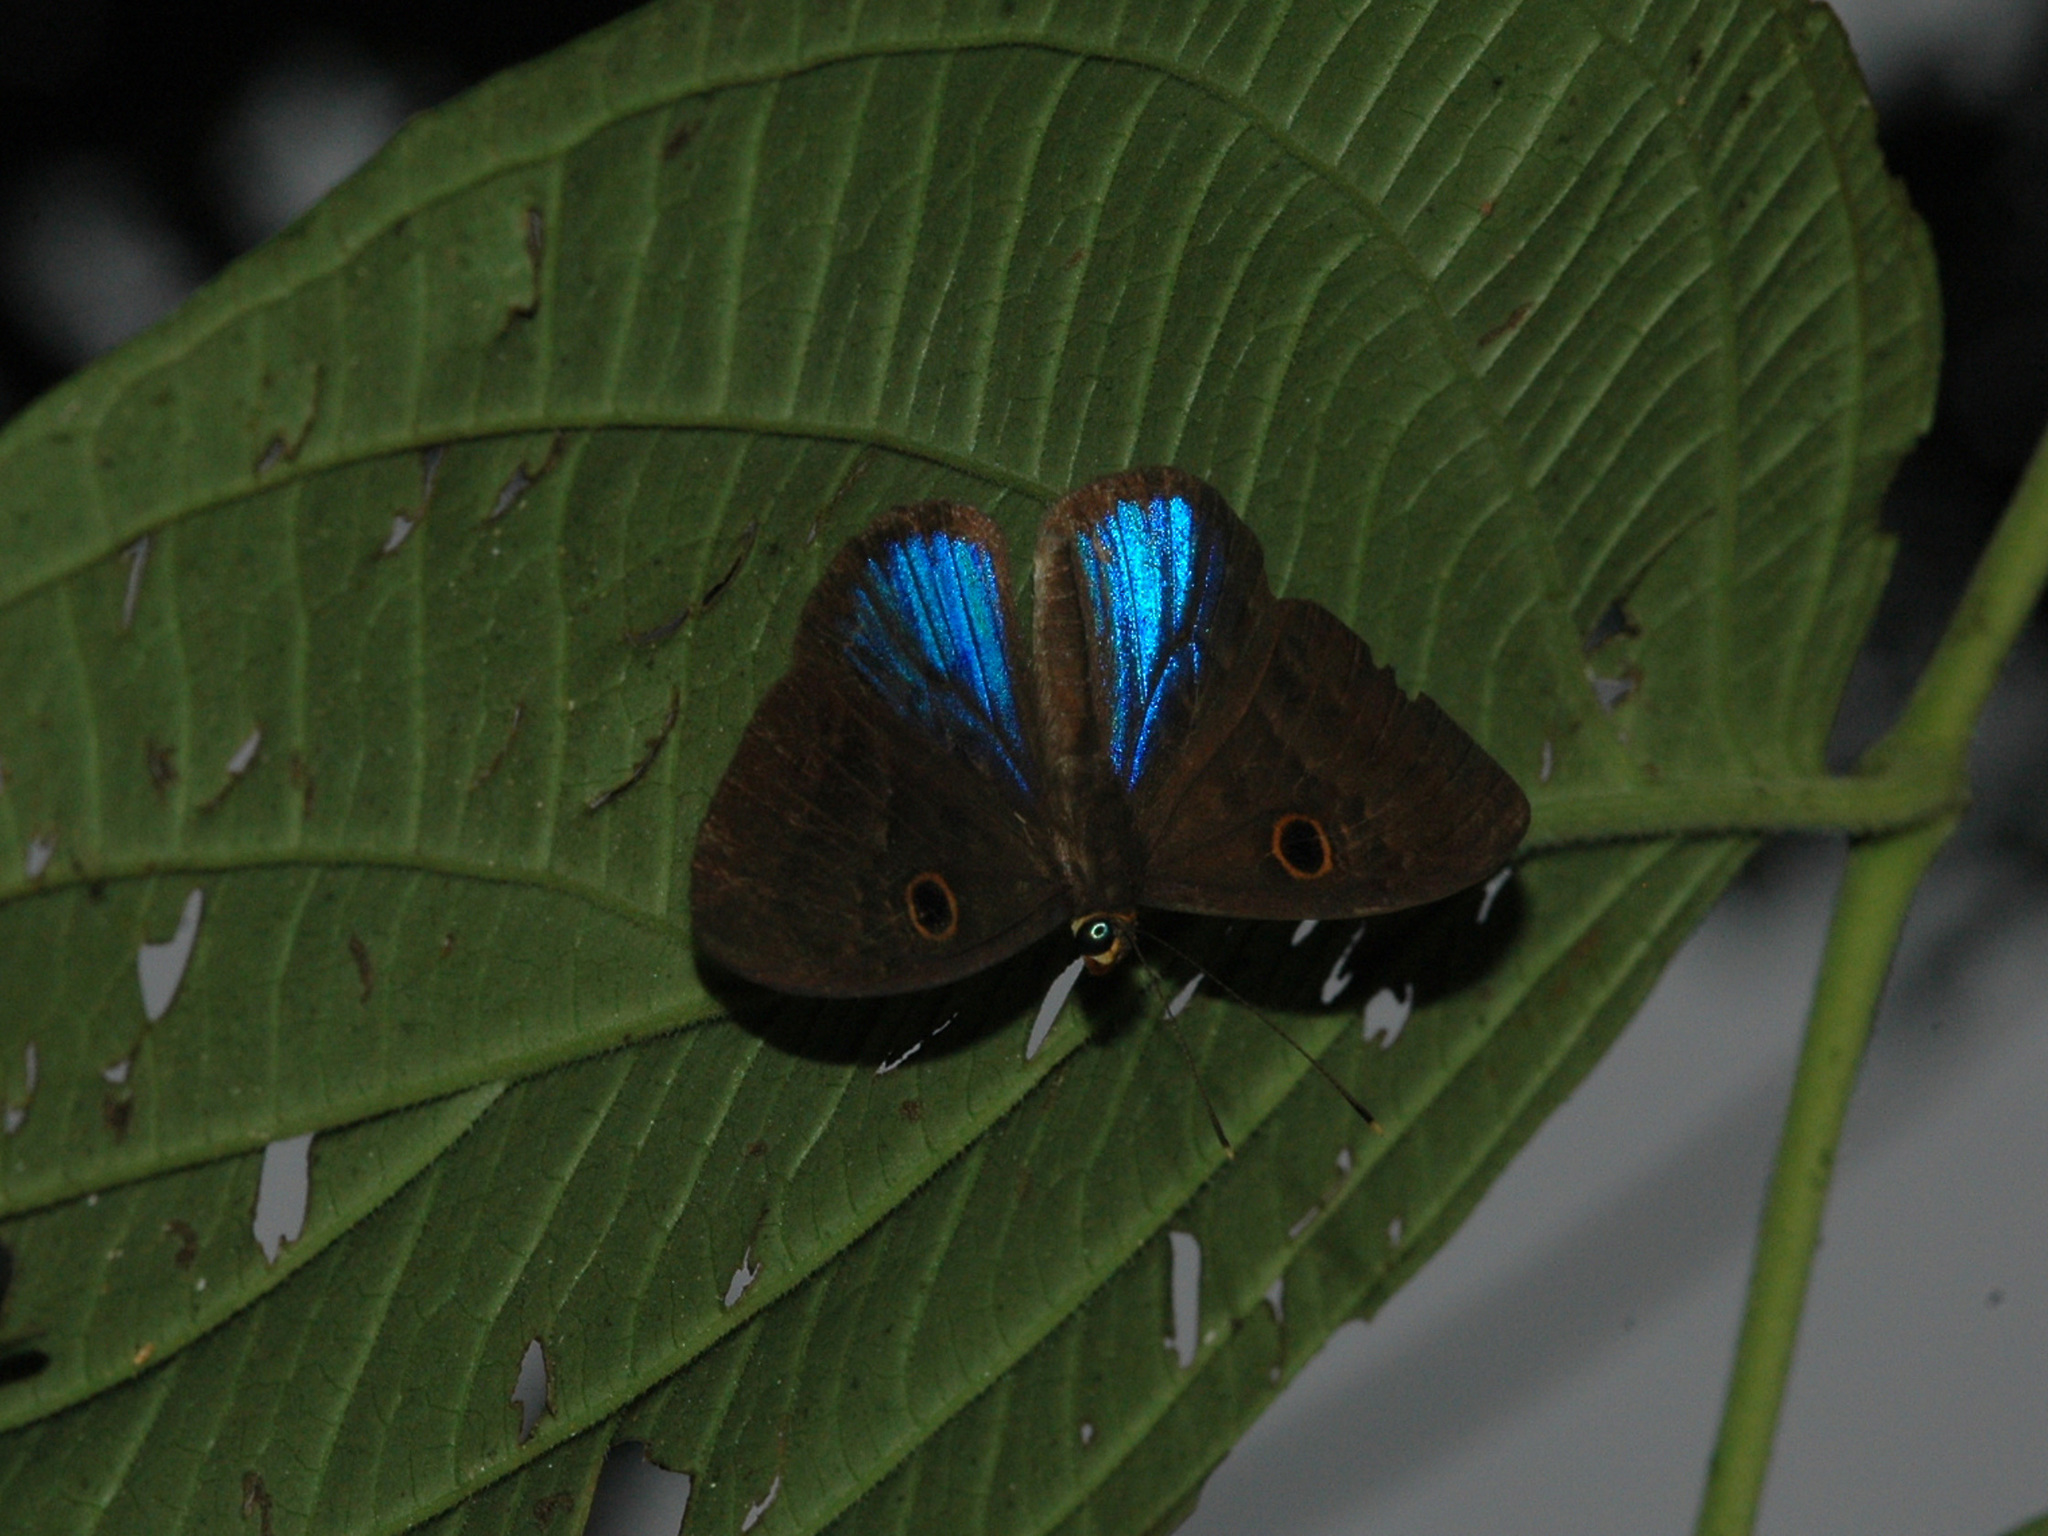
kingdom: Animalia
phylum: Cnidaria
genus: Eurybia
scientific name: Eurybia lycisca
